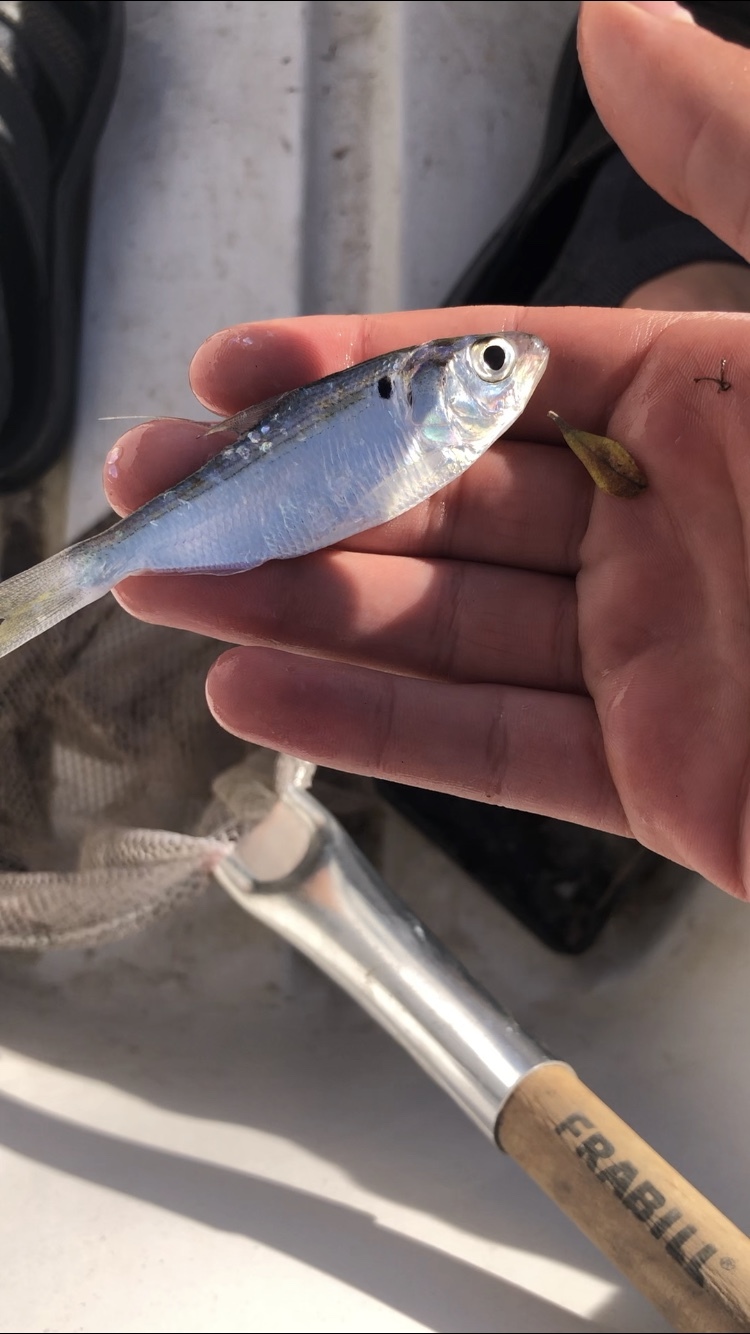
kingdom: Animalia
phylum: Chordata
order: Clupeiformes
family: Clupeidae
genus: Dorosoma
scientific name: Dorosoma petenense
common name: Threadfin shad
